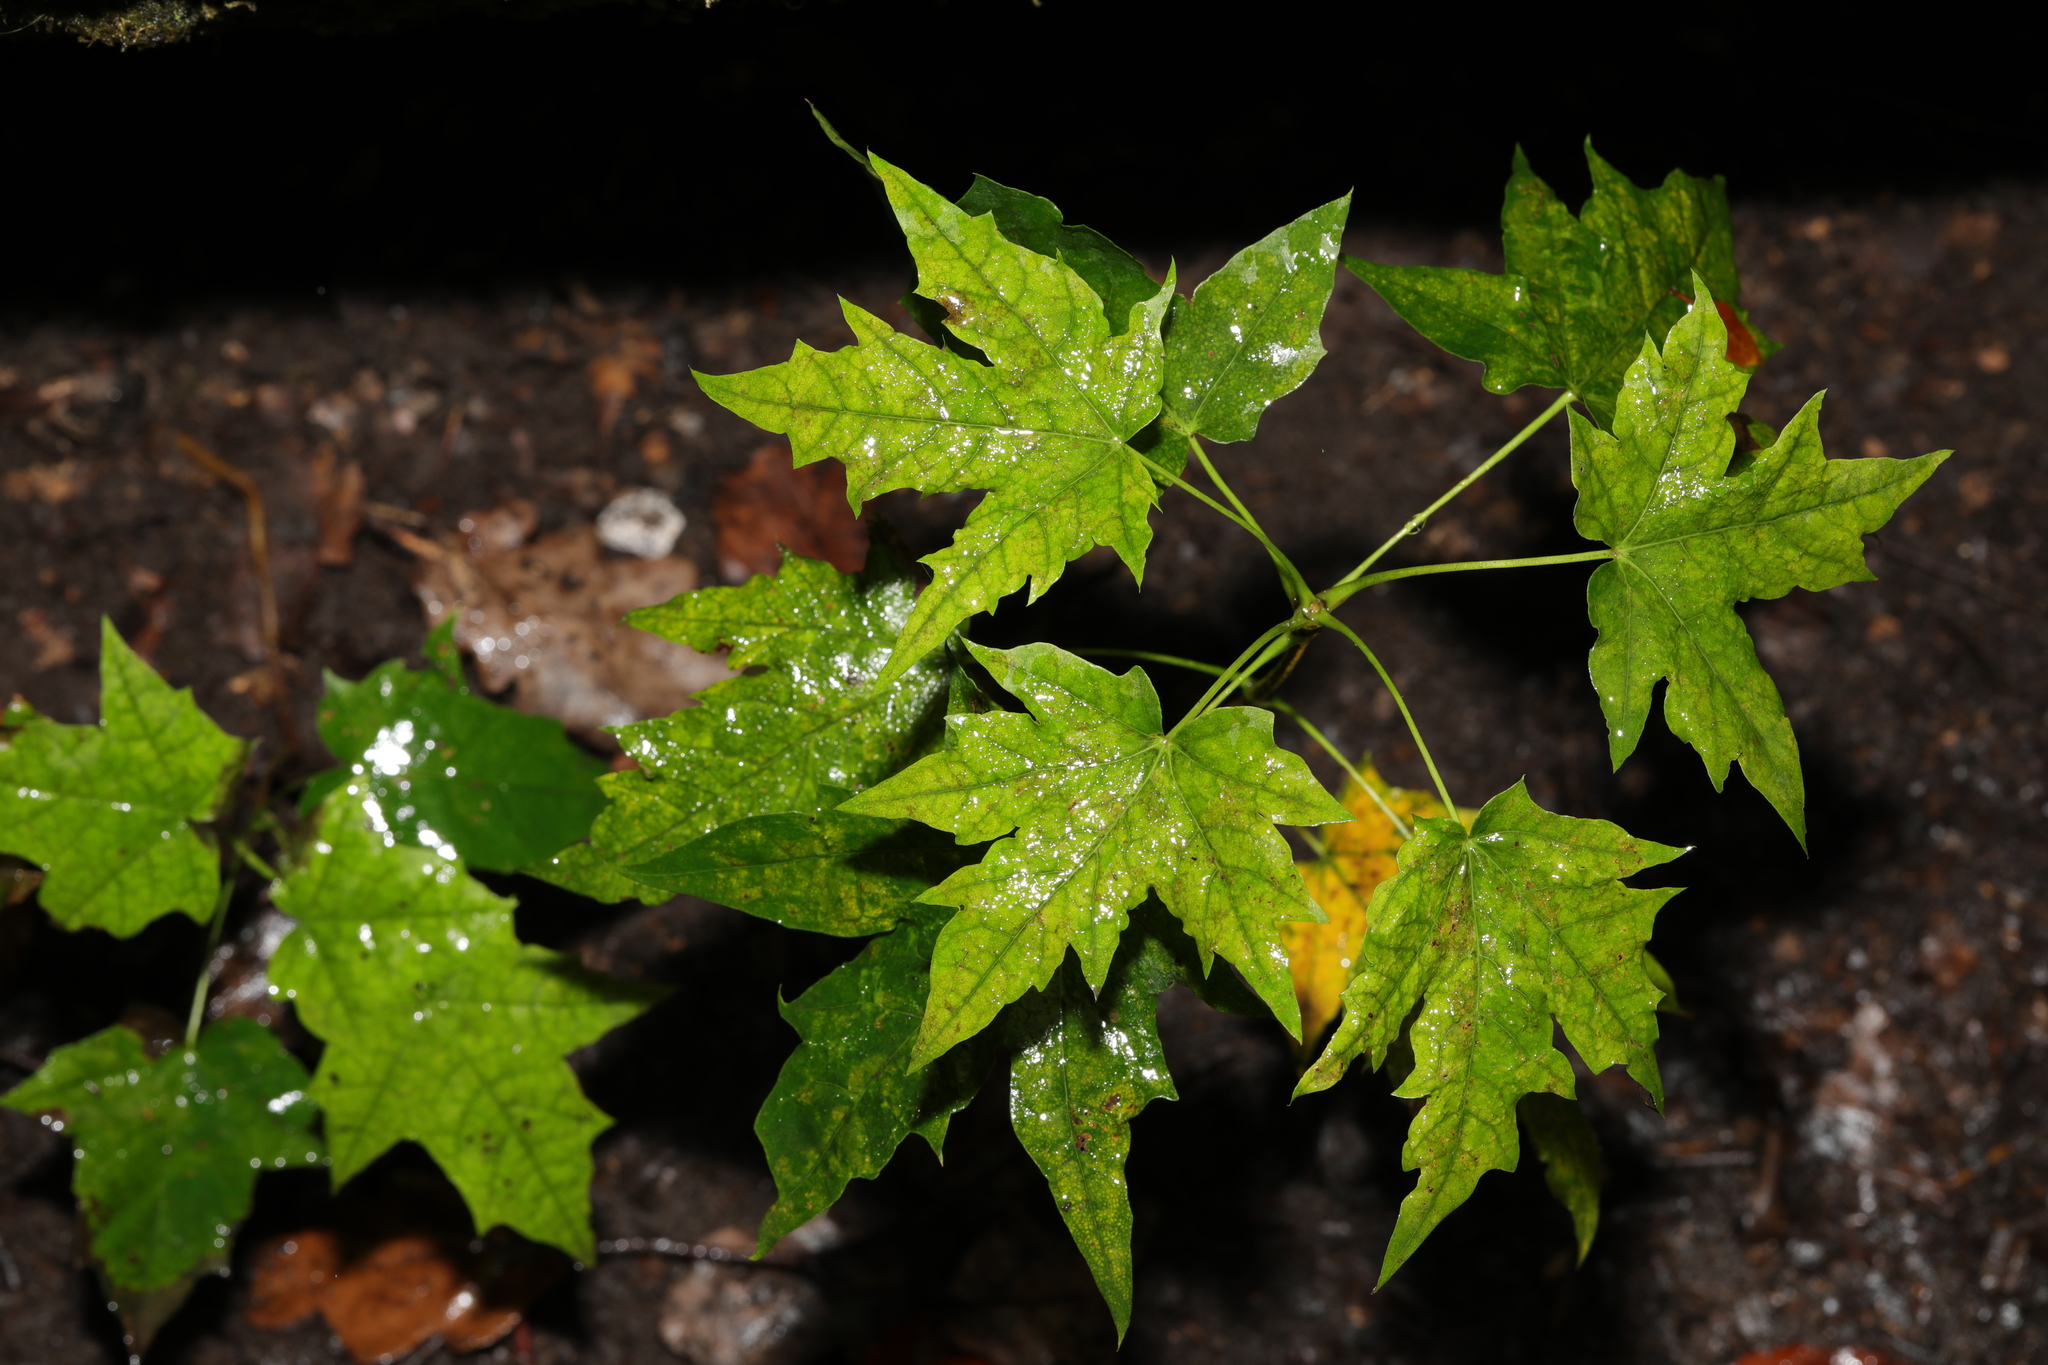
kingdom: Plantae
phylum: Tracheophyta
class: Magnoliopsida
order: Sapindales
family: Sapindaceae
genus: Acer
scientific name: Acer platanoides
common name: Norway maple
